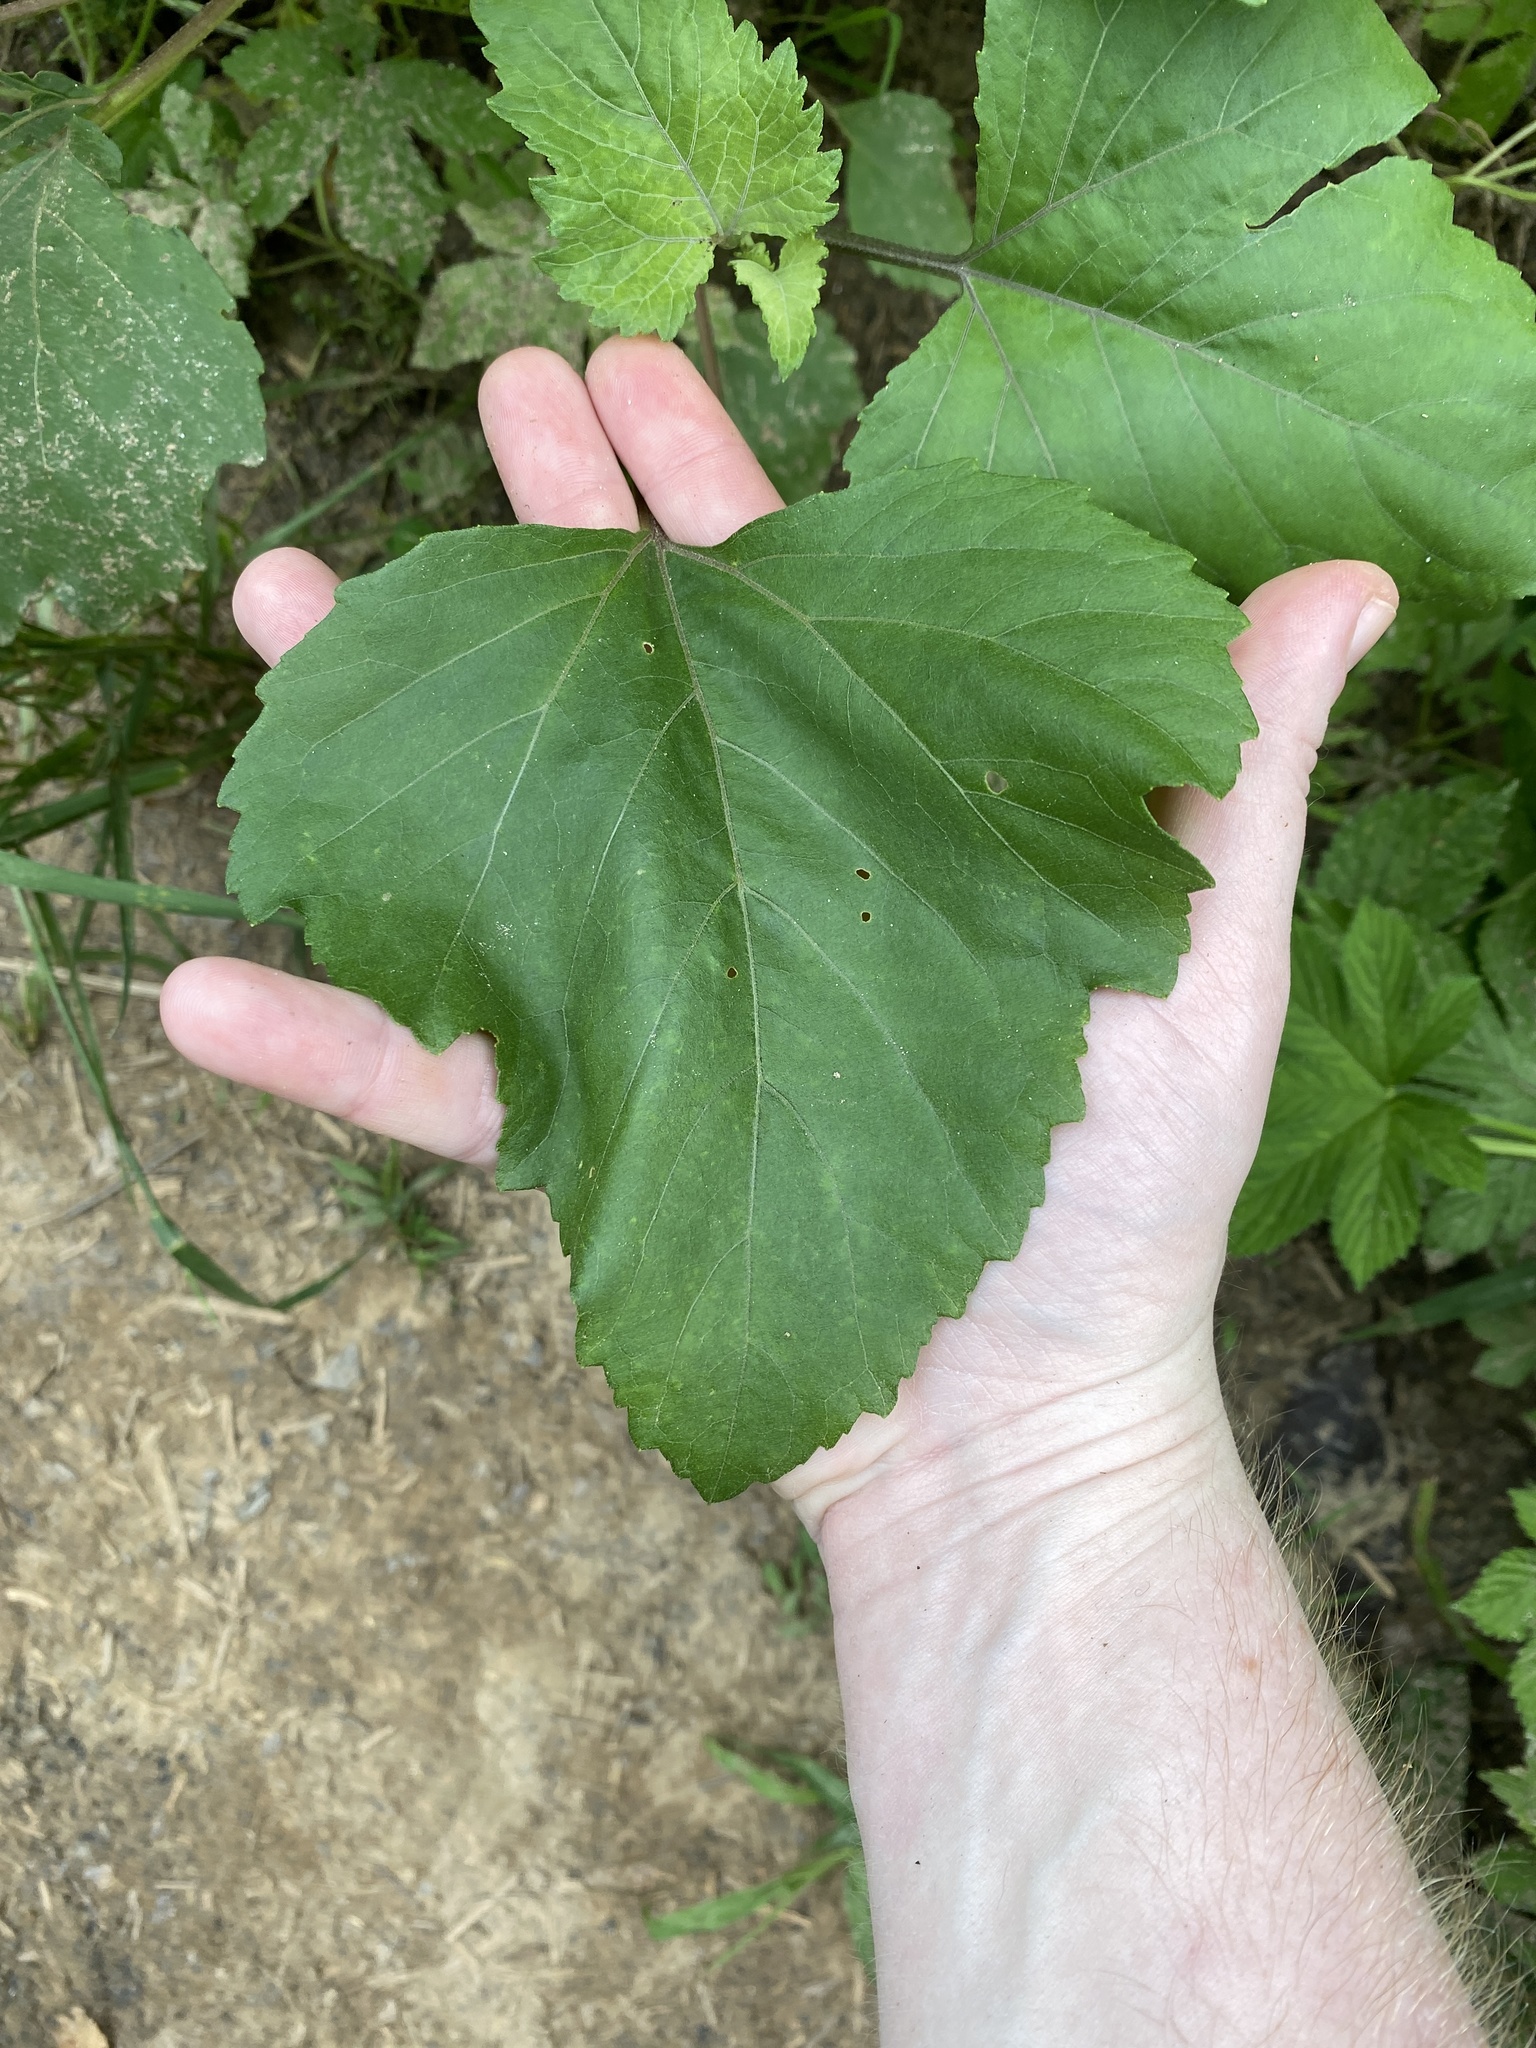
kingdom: Plantae
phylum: Tracheophyta
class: Magnoliopsida
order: Asterales
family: Asteraceae
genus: Xanthium
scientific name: Xanthium strumarium
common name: Rough cocklebur
